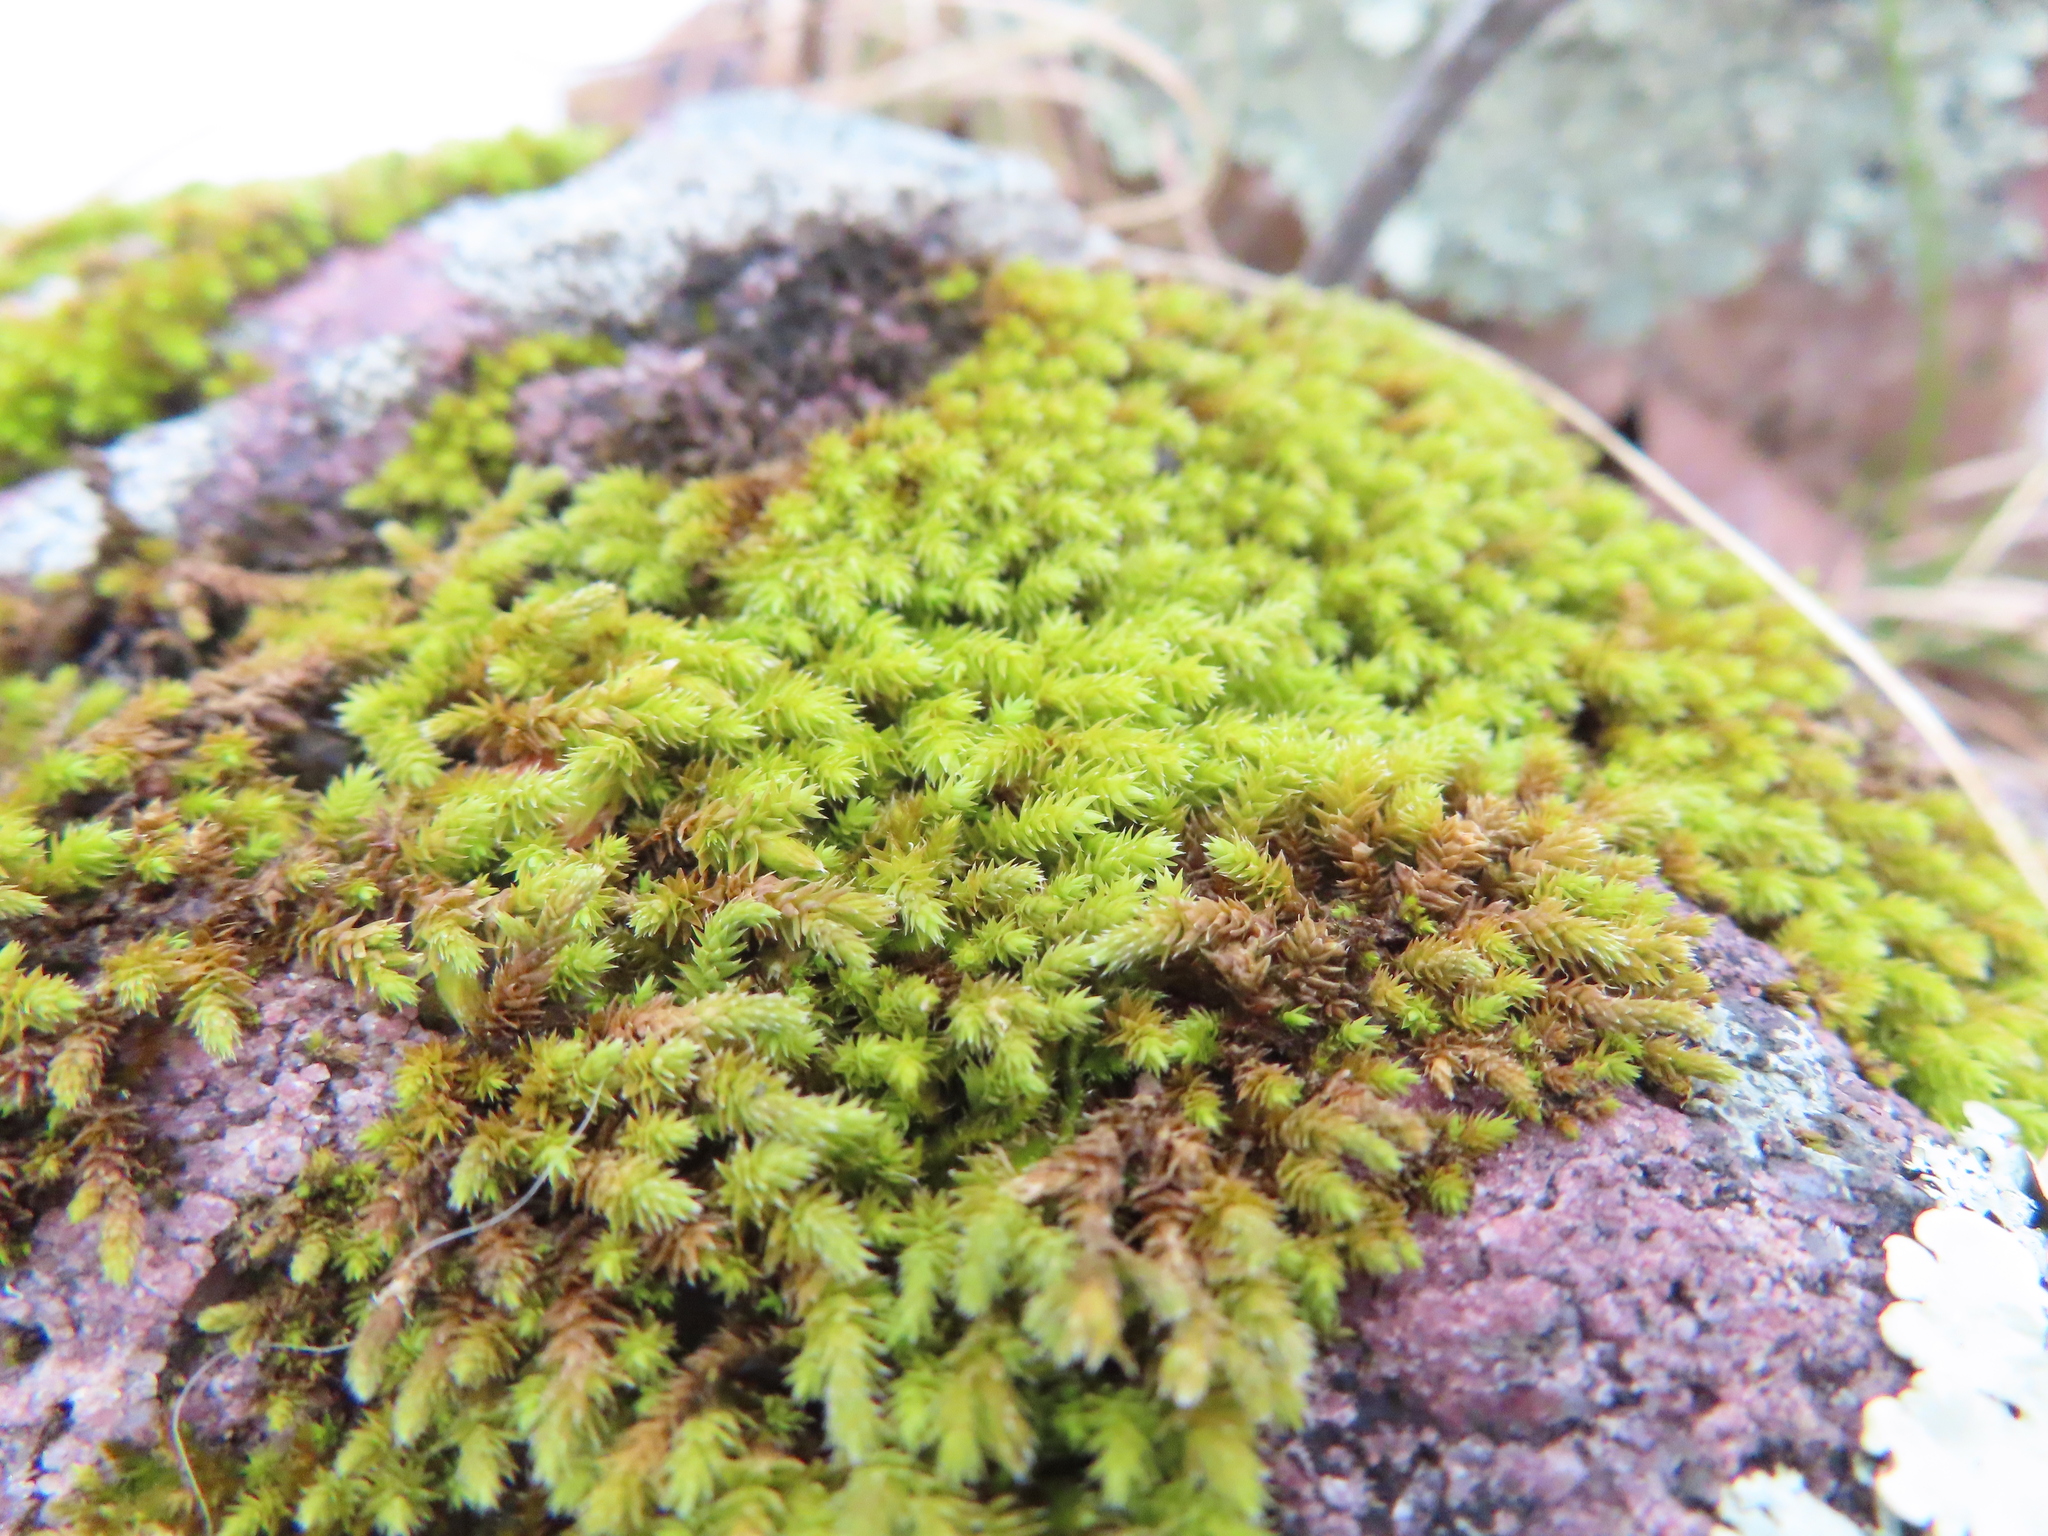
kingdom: Plantae
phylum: Bryophyta
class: Bryopsida
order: Hedwigiales
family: Hedwigiaceae
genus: Hedwigia
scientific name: Hedwigia ciliata
